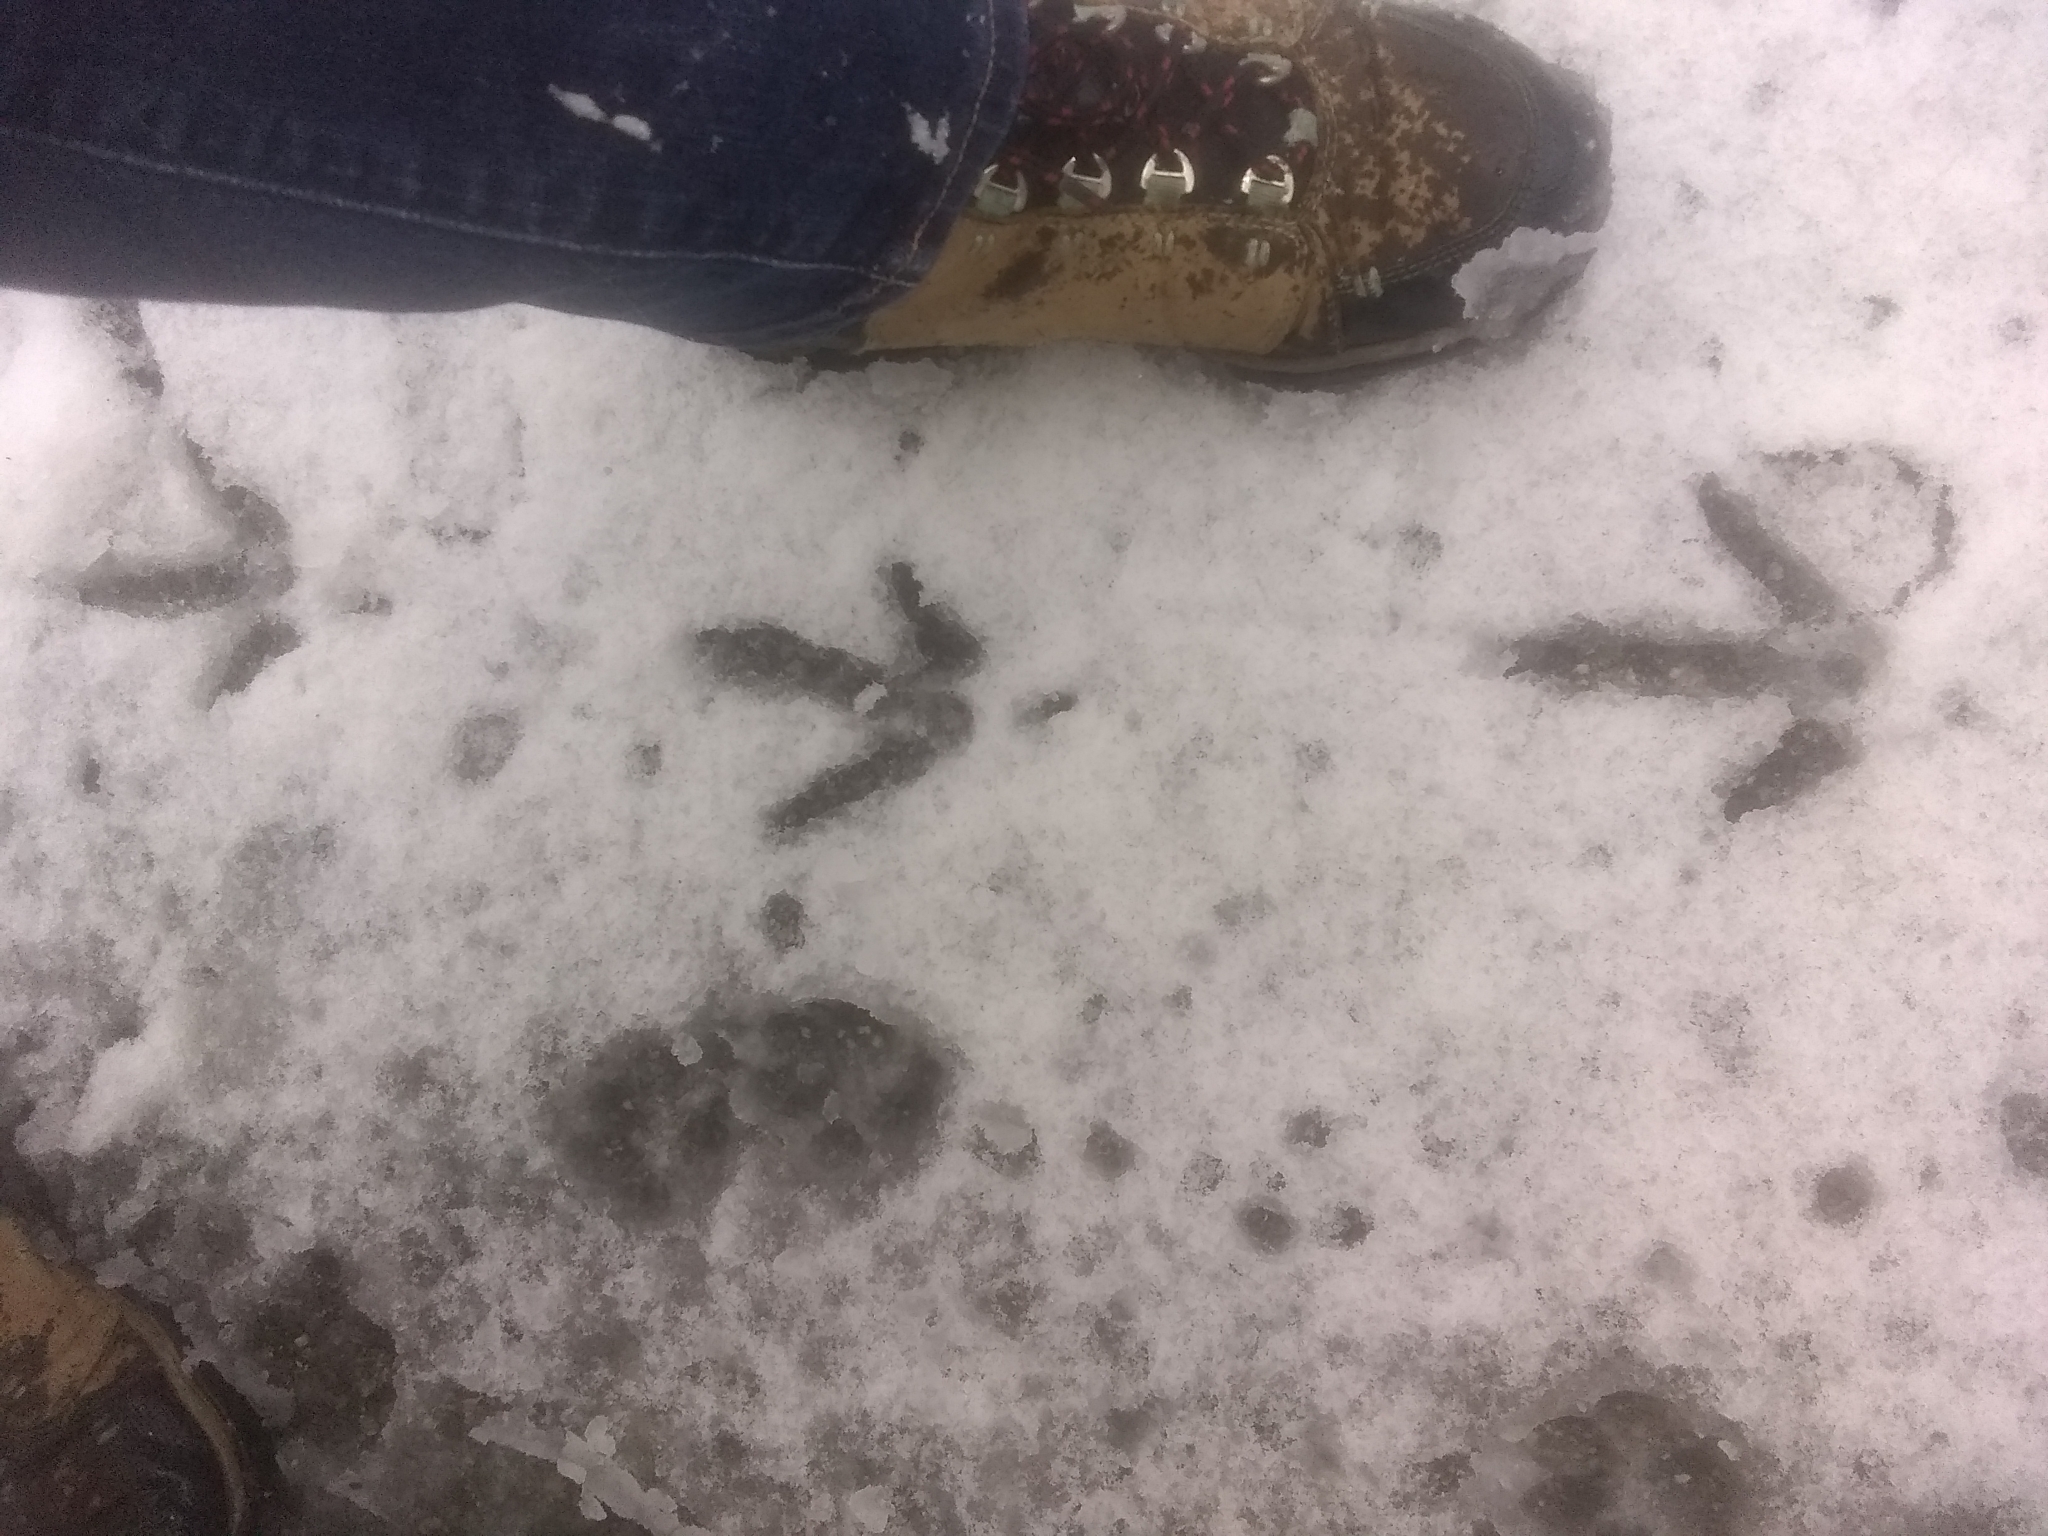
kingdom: Animalia
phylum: Chordata
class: Aves
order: Galliformes
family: Phasianidae
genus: Meleagris
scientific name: Meleagris gallopavo
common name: Wild turkey
